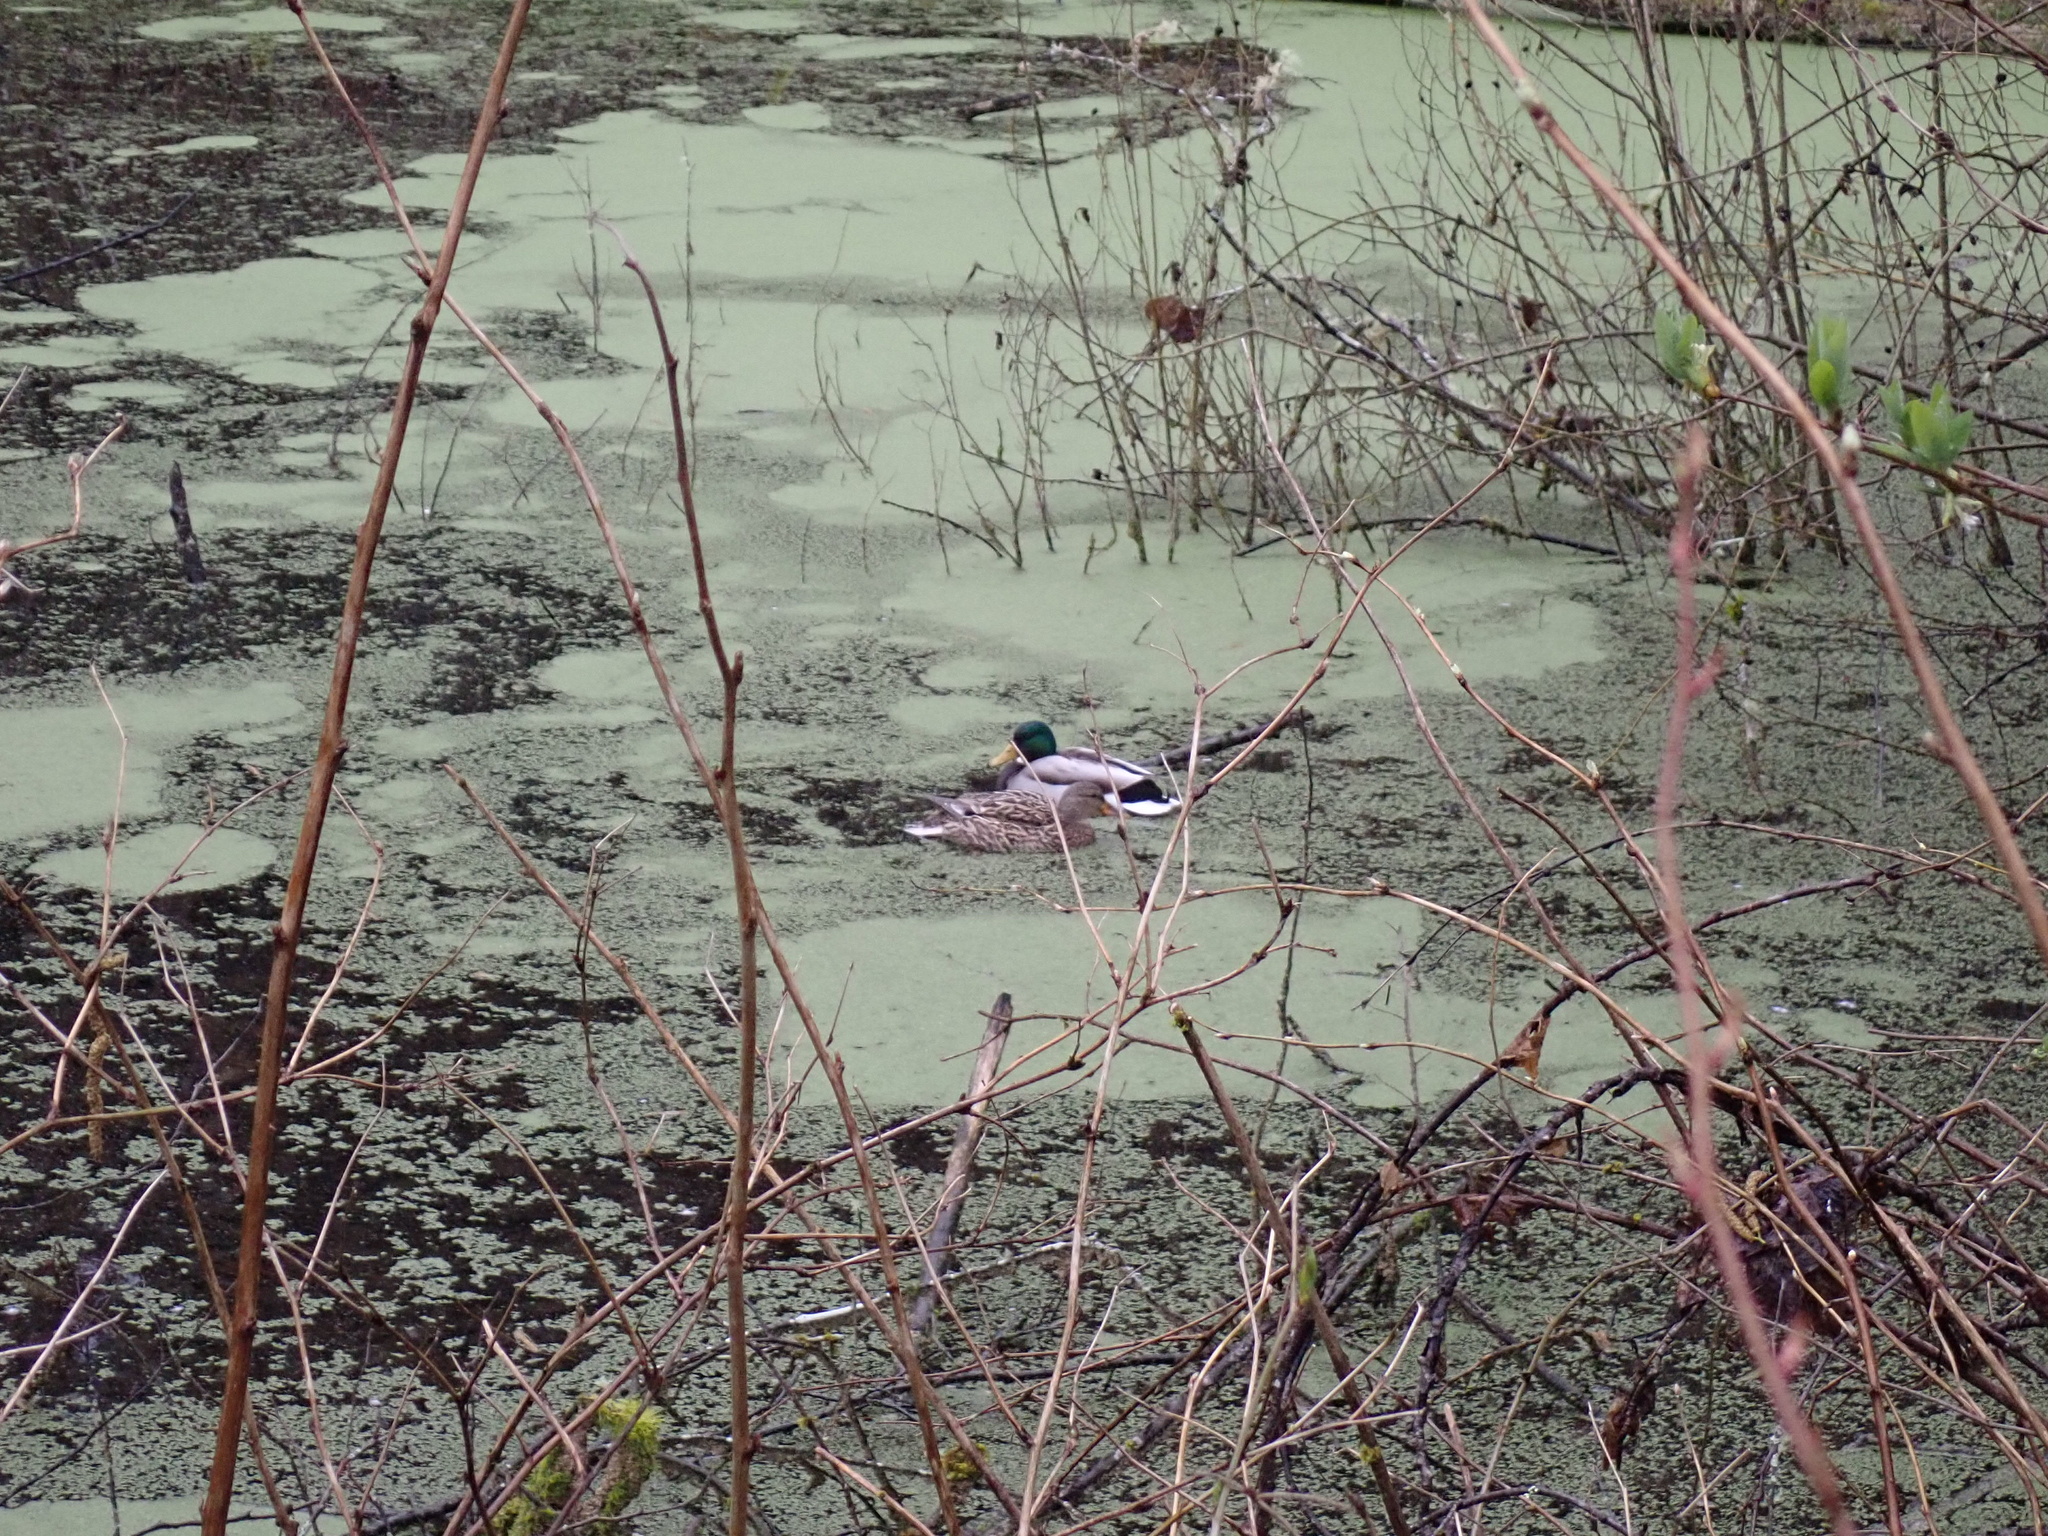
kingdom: Animalia
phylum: Chordata
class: Aves
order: Anseriformes
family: Anatidae
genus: Anas
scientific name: Anas platyrhynchos
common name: Mallard
